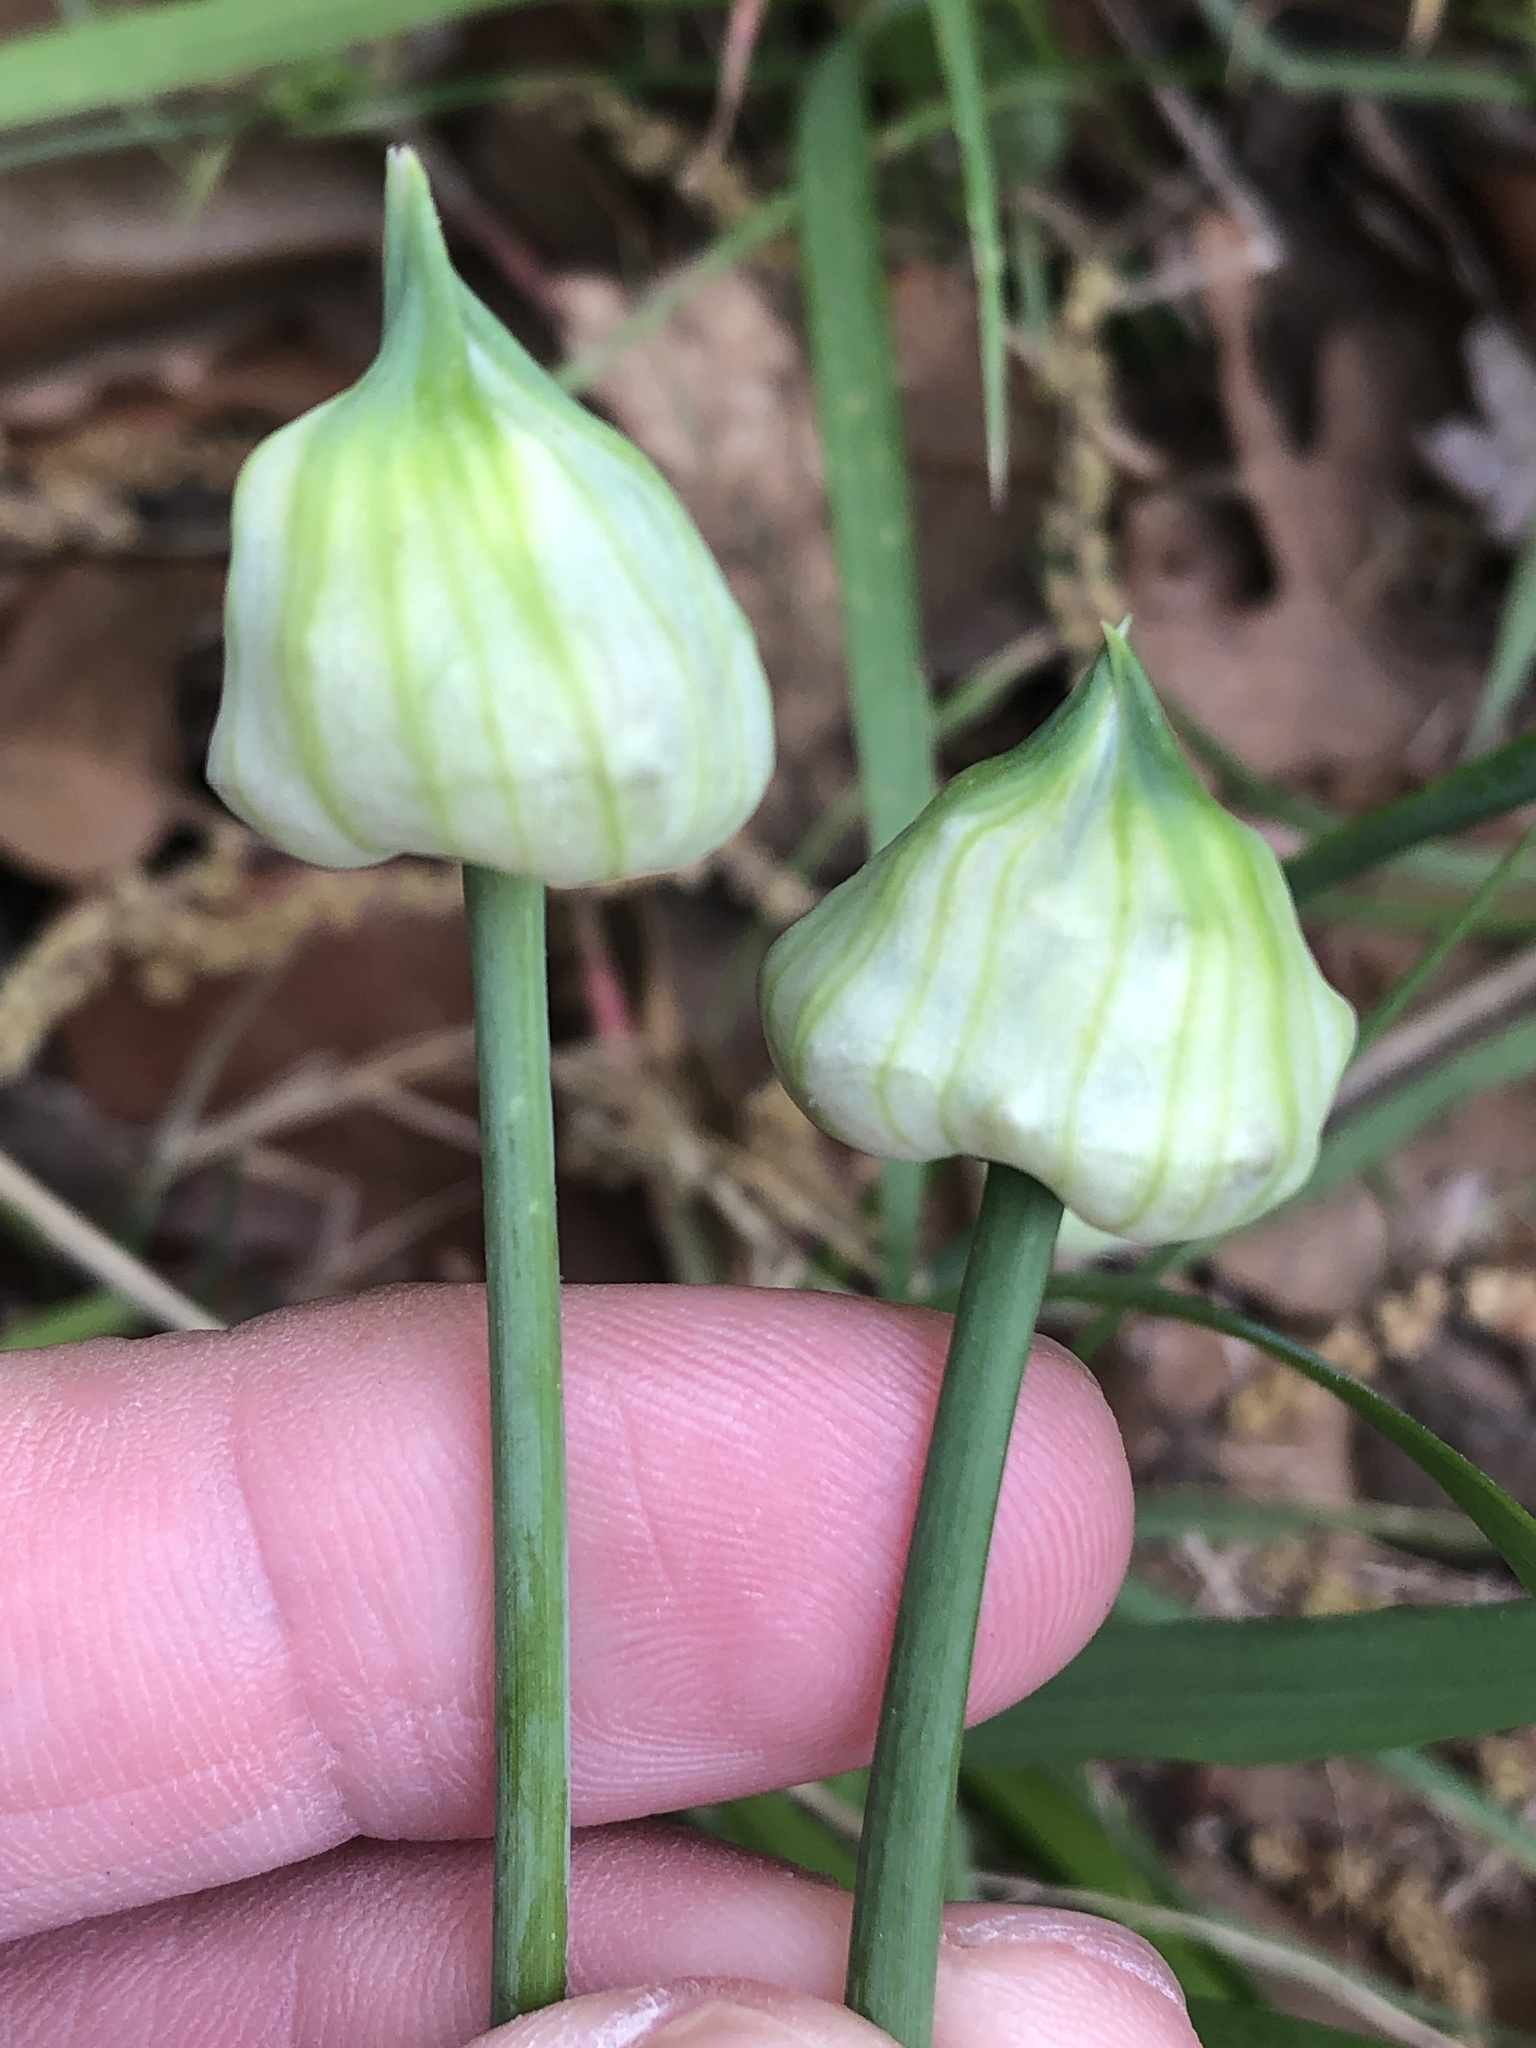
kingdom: Plantae
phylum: Tracheophyta
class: Liliopsida
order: Asparagales
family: Amaryllidaceae
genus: Allium
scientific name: Allium canadense
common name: Meadow garlic
